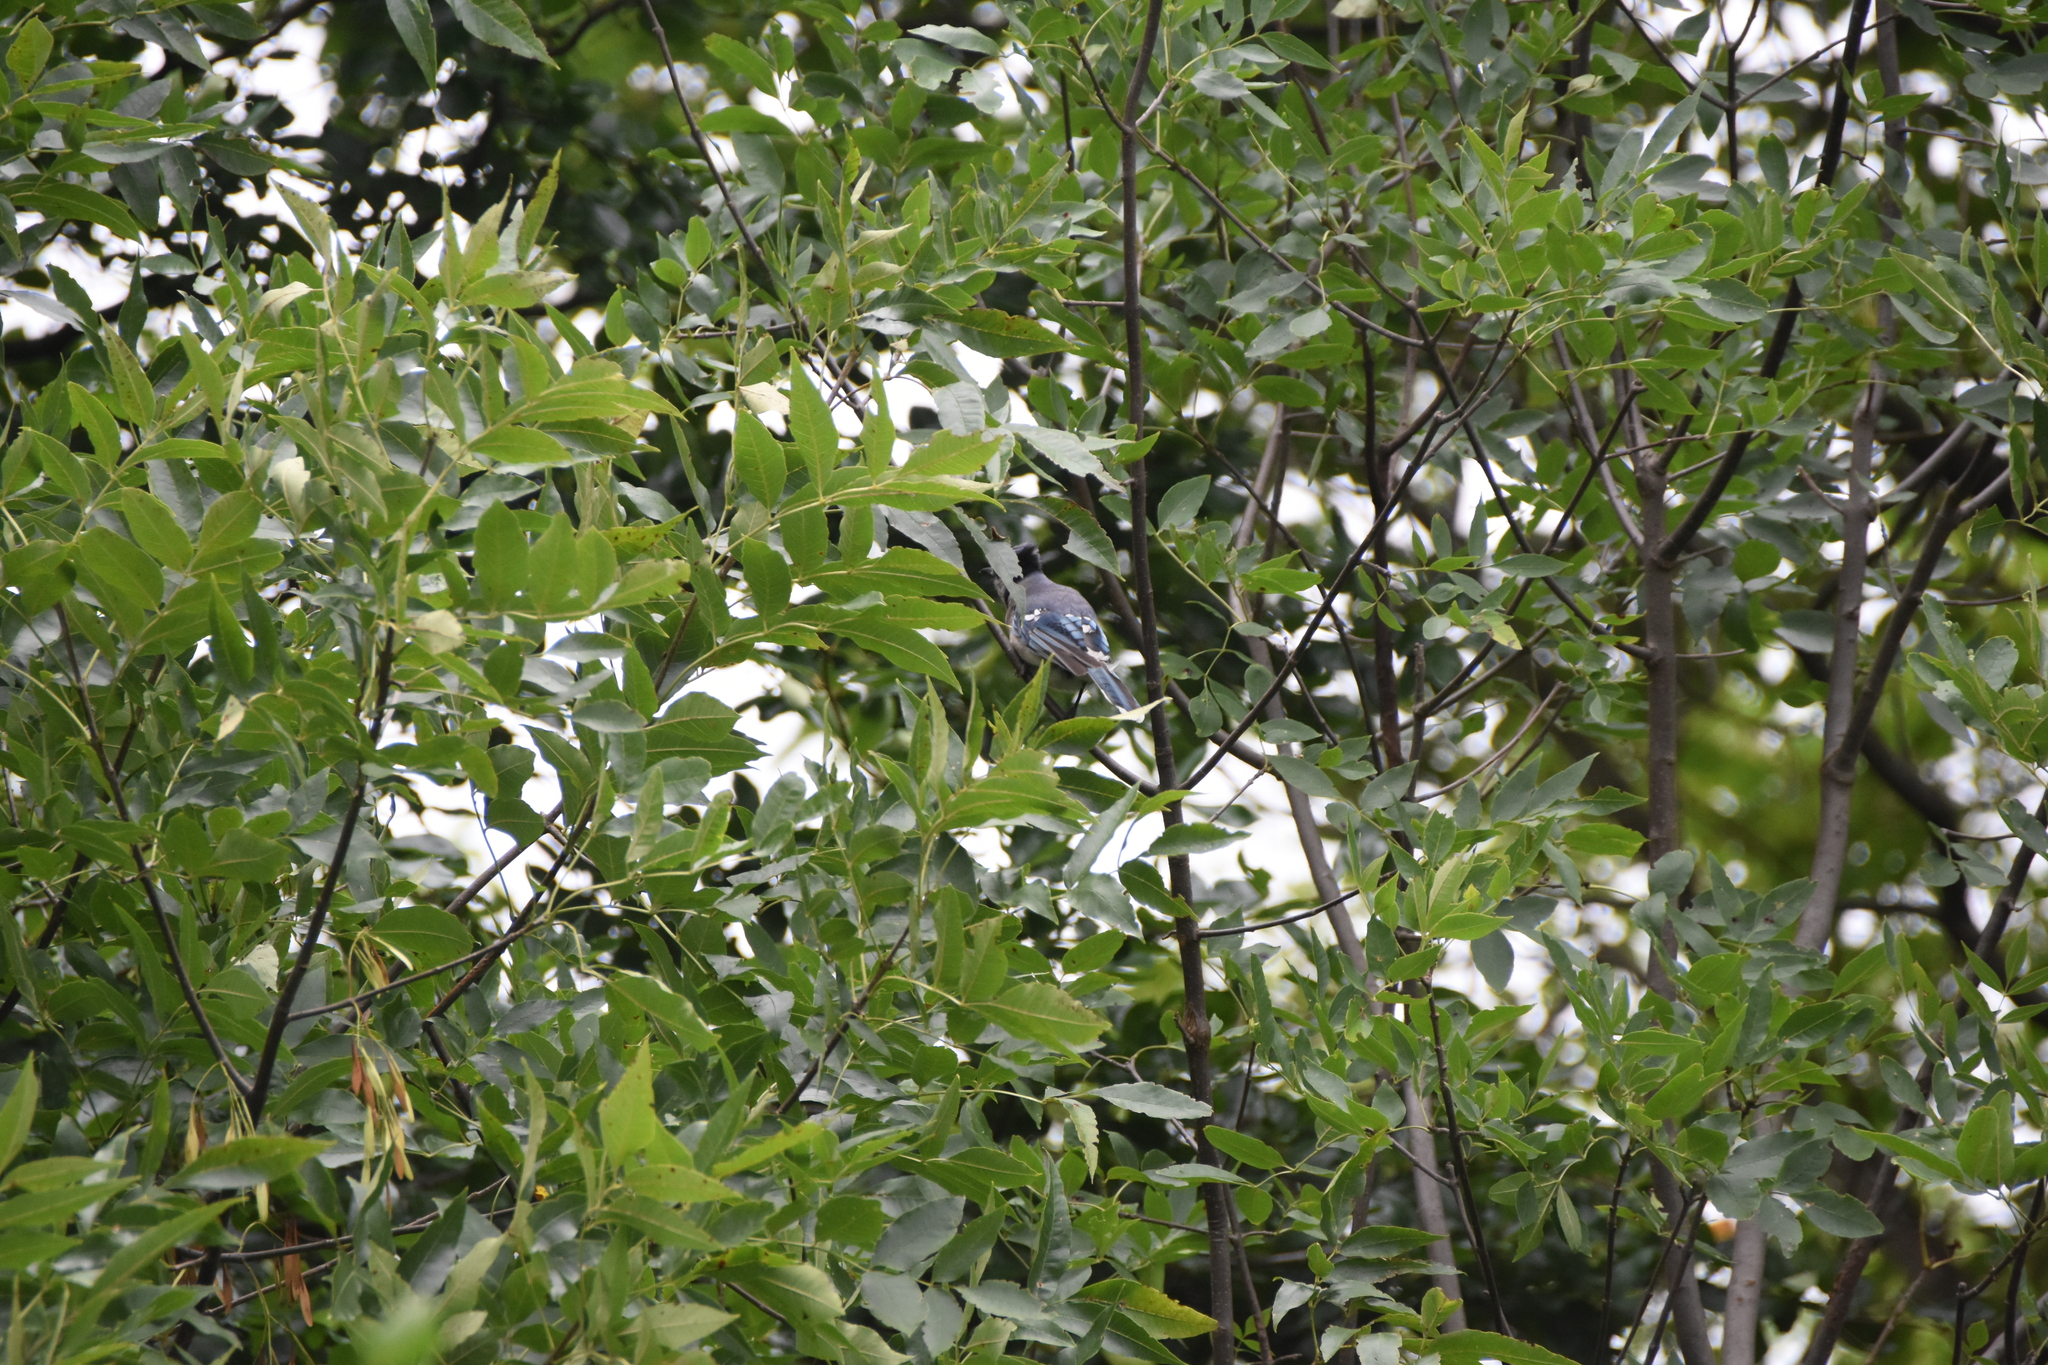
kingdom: Animalia
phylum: Chordata
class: Aves
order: Passeriformes
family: Corvidae
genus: Cyanocitta
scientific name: Cyanocitta cristata
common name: Blue jay
